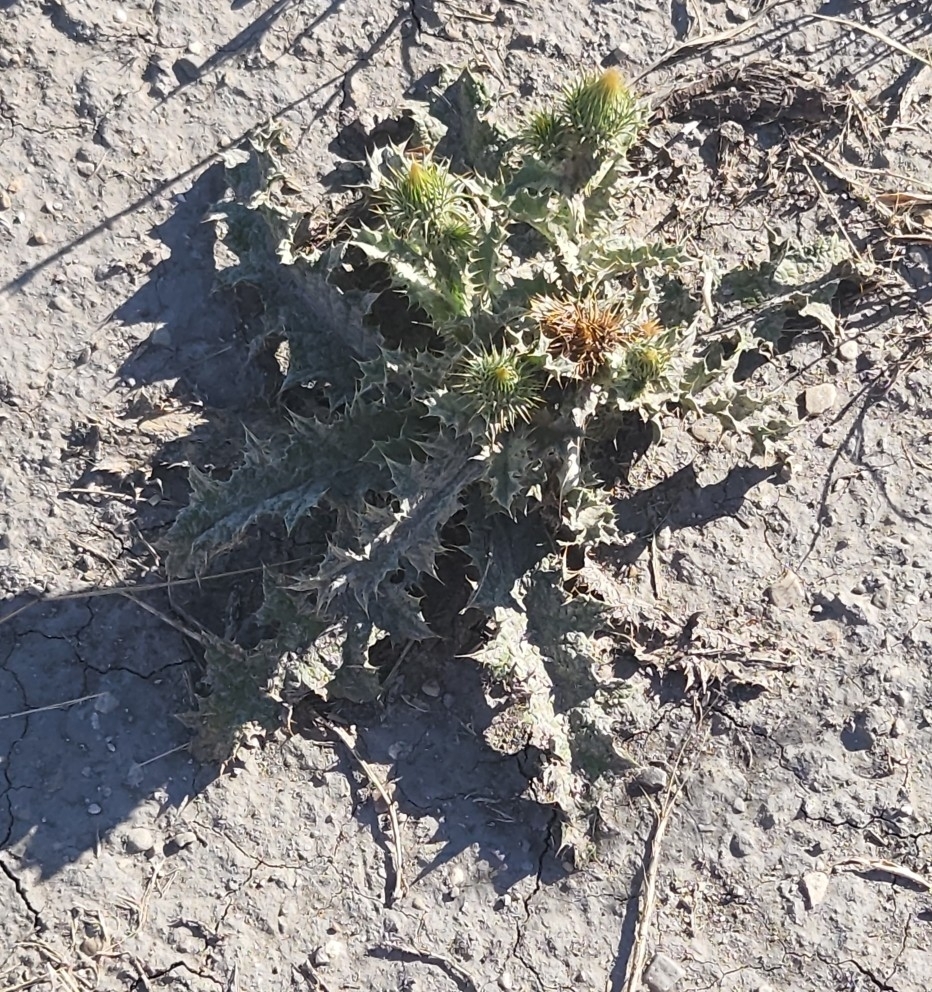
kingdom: Plantae
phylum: Tracheophyta
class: Magnoliopsida
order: Asterales
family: Asteraceae
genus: Onopordum
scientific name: Onopordum acanthium
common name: Scotch thistle
